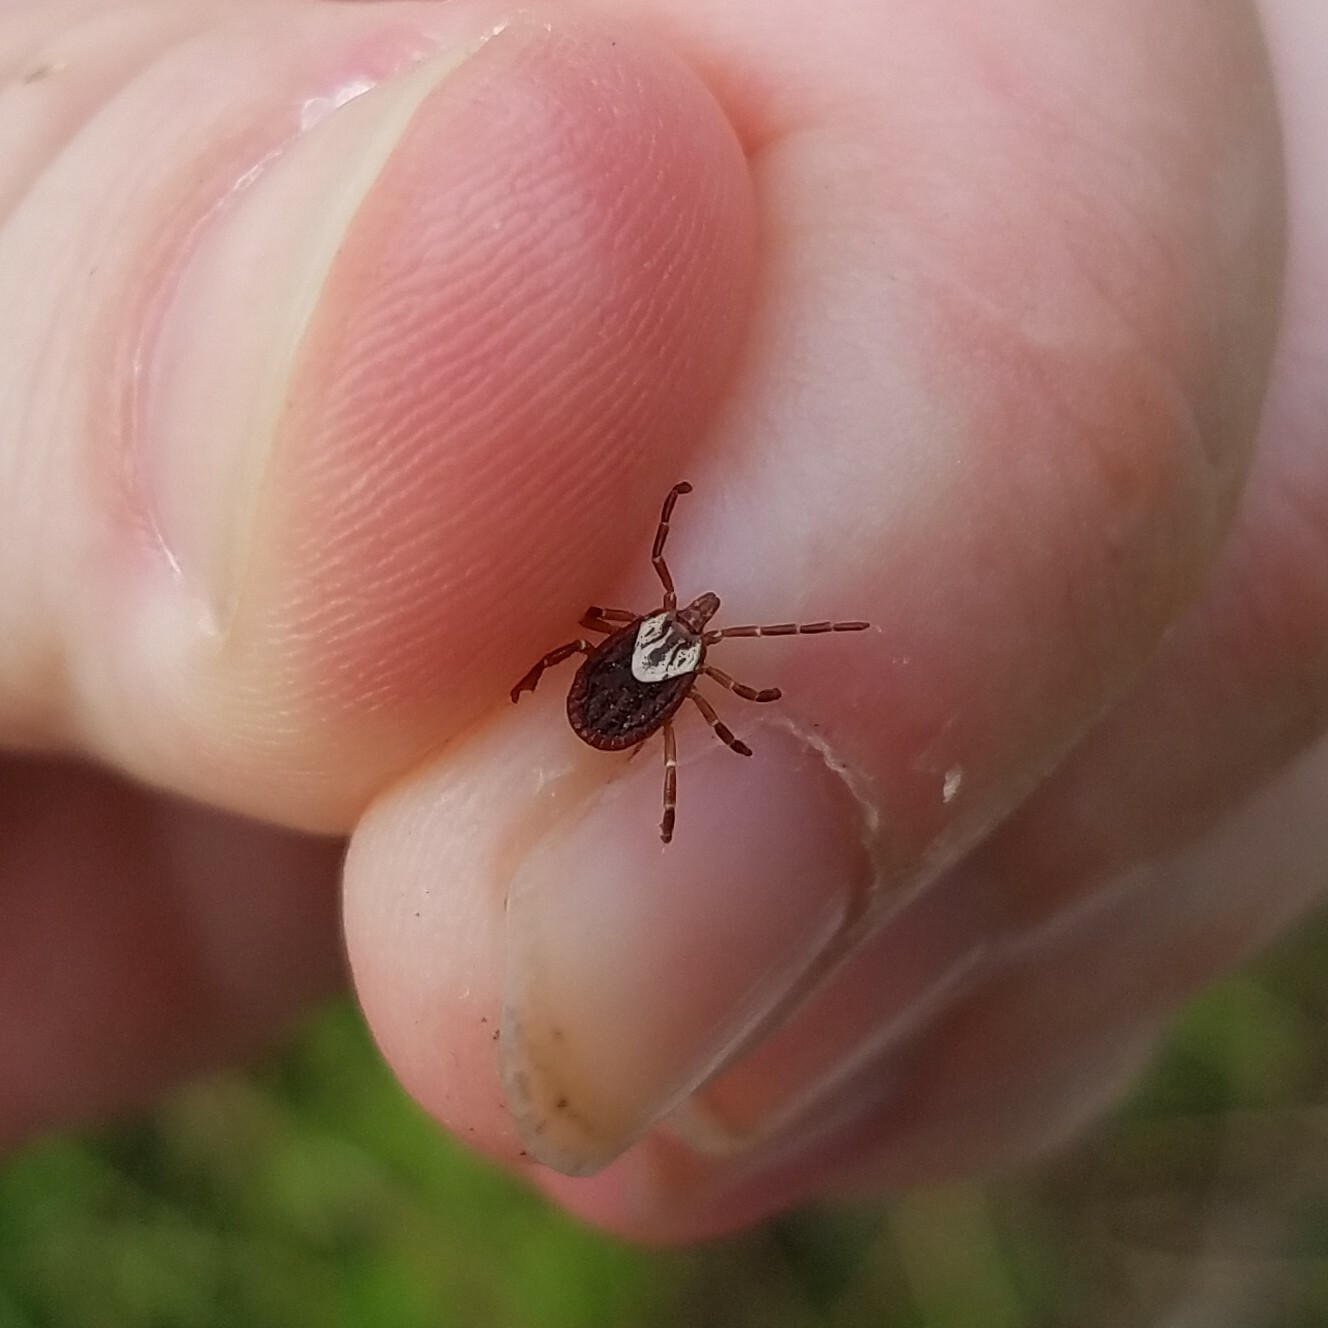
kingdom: Animalia
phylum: Arthropoda
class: Arachnida
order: Ixodida
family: Ixodidae
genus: Amblyomma
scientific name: Amblyomma maculatum
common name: Gulf coast tick
